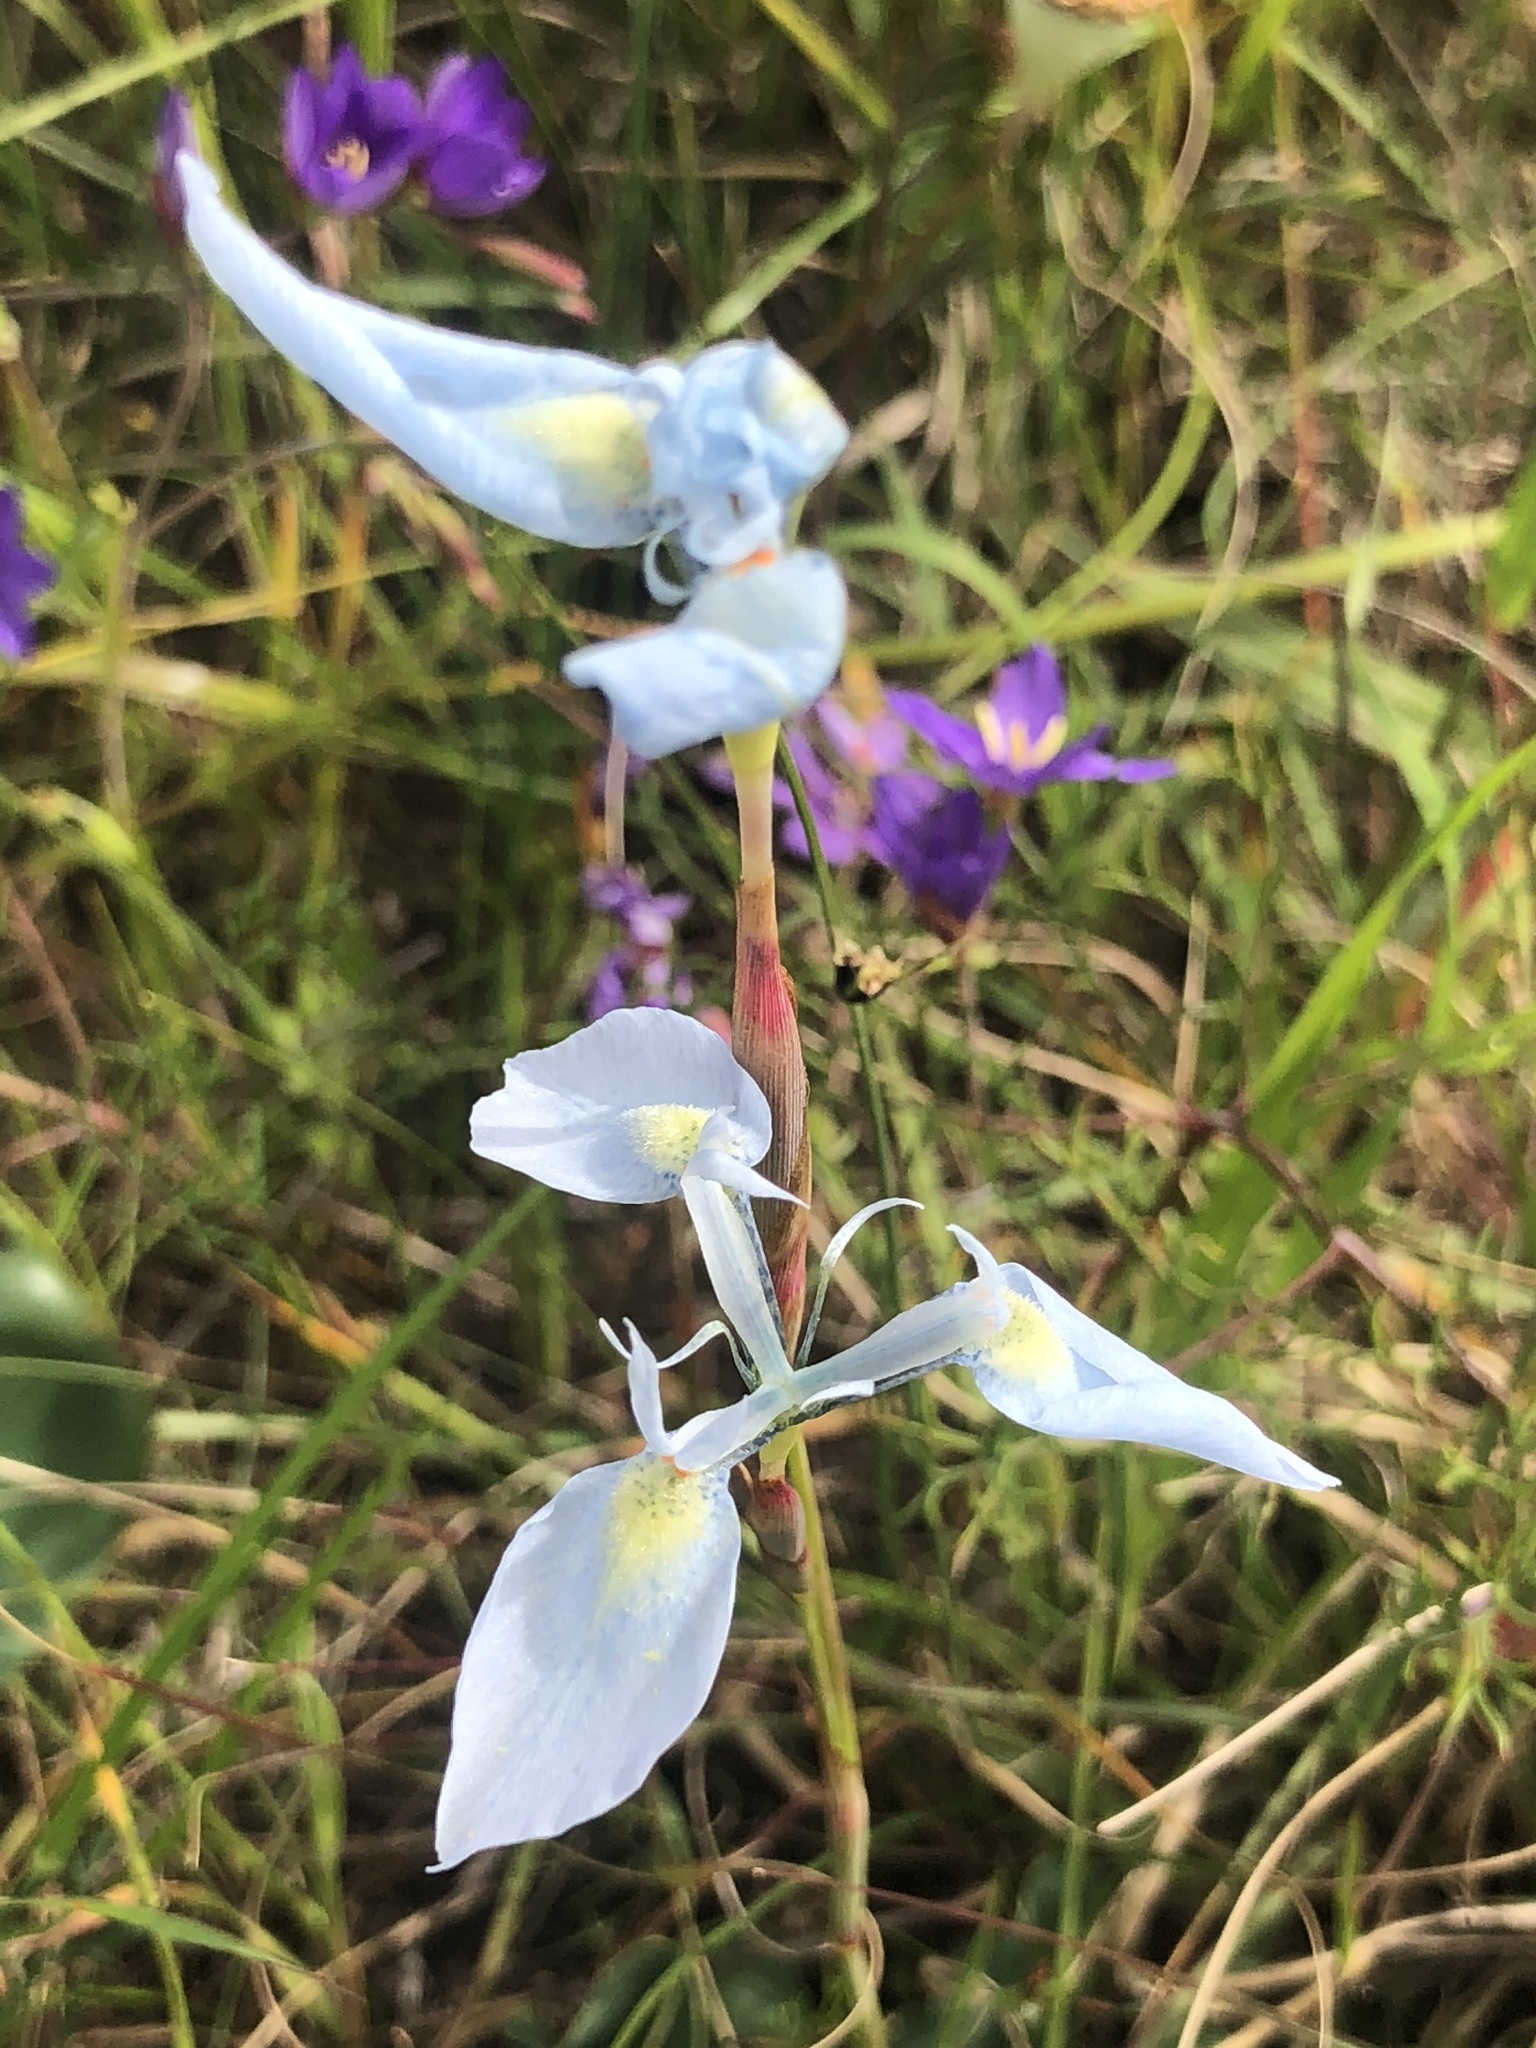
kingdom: Plantae
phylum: Tracheophyta
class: Liliopsida
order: Asparagales
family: Iridaceae
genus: Moraea
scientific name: Moraea tripetala
